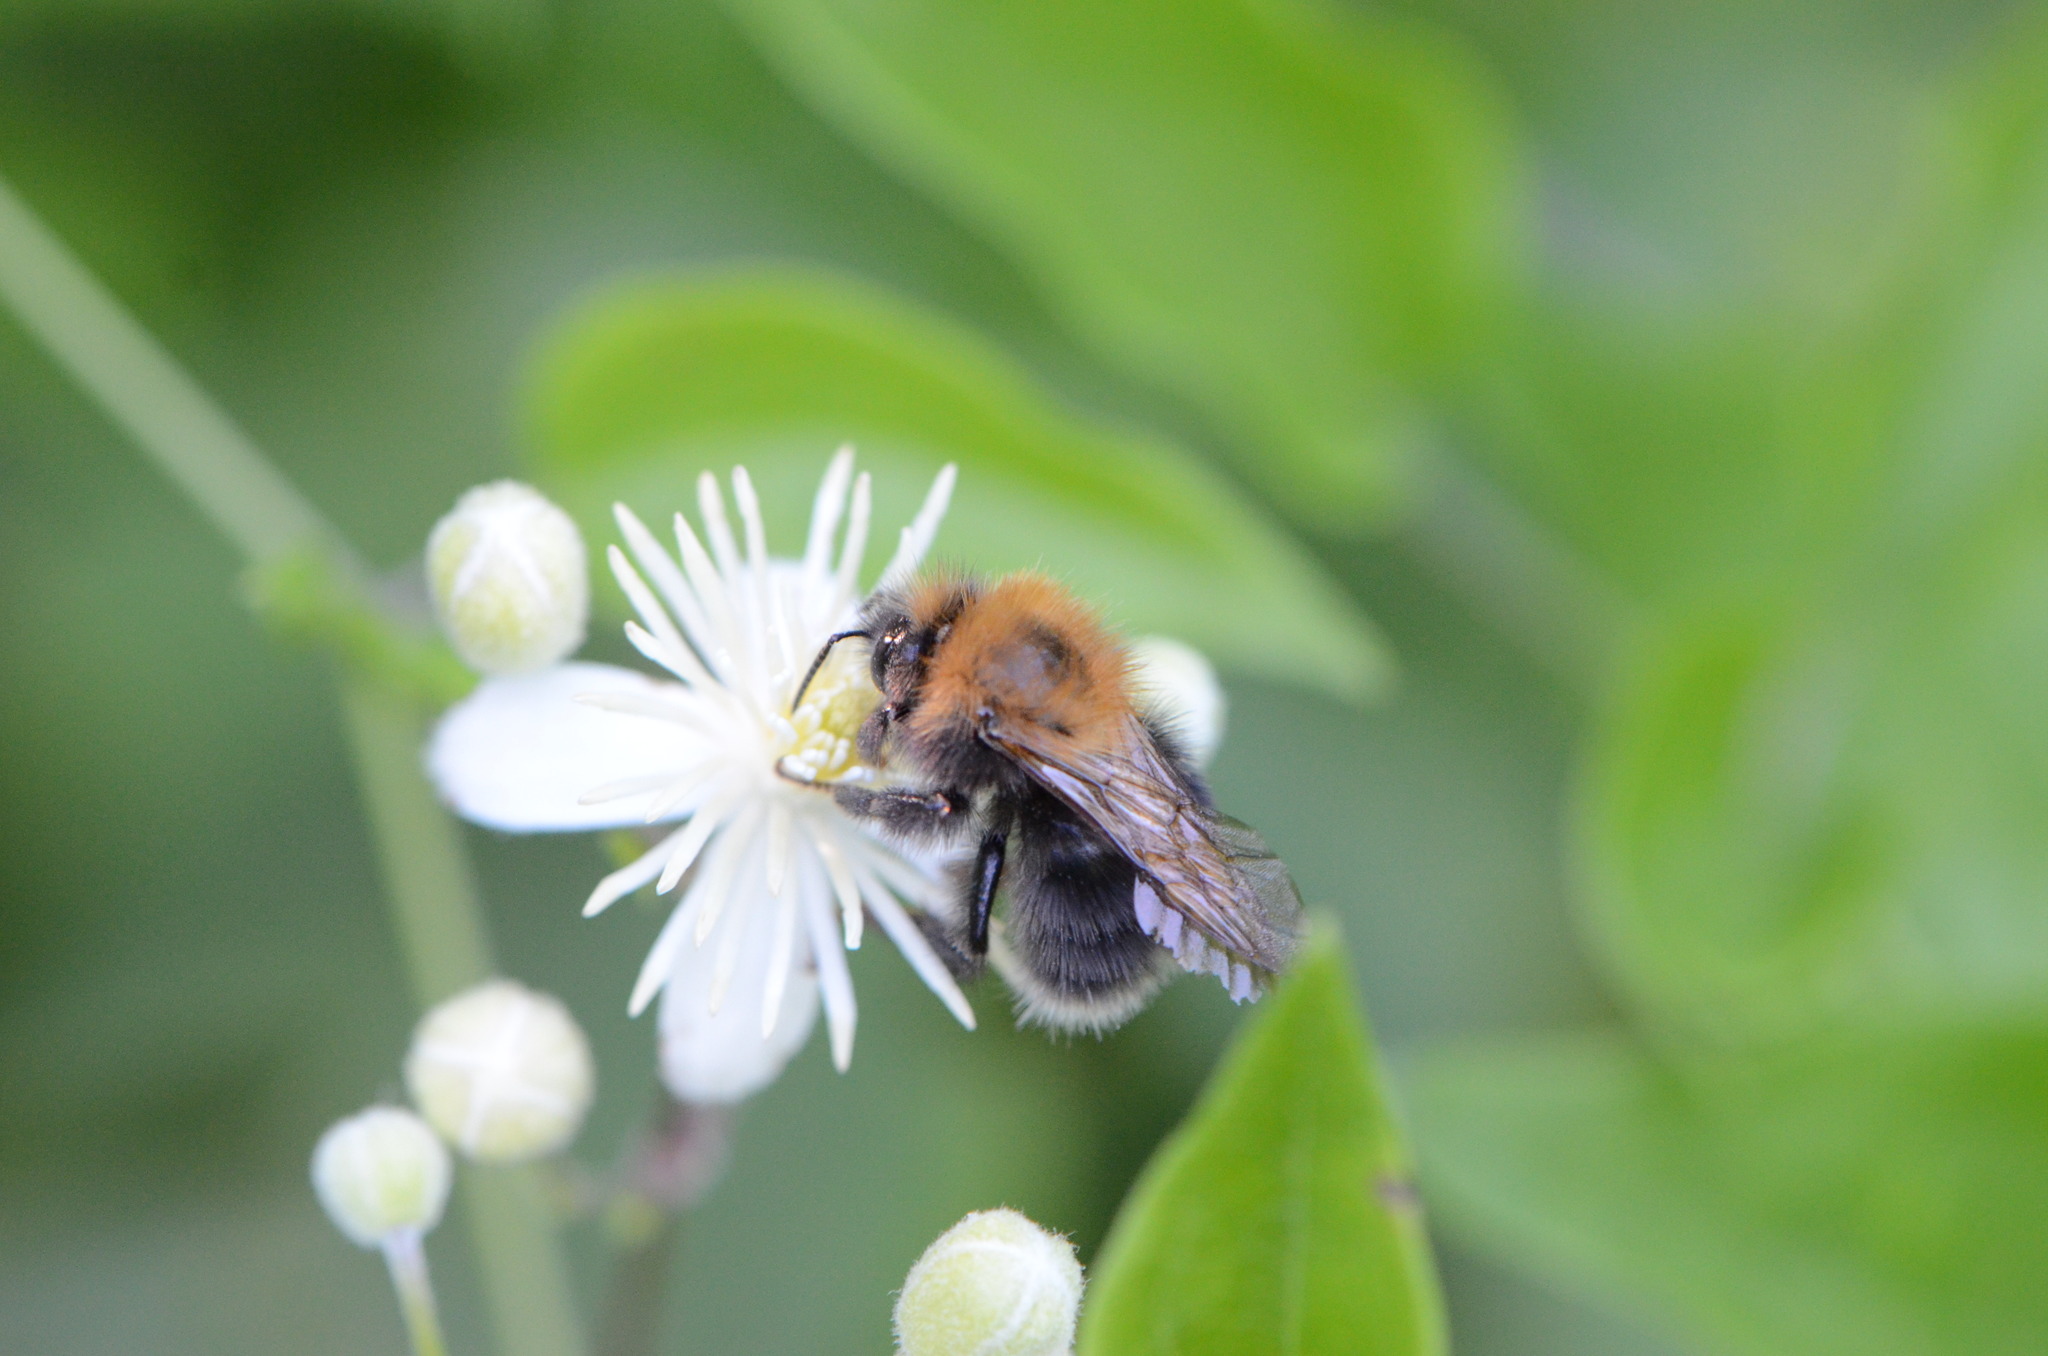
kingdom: Plantae
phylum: Tracheophyta
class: Magnoliopsida
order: Ranunculales
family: Ranunculaceae
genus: Clematis
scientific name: Clematis vitalba
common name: Evergreen clematis
